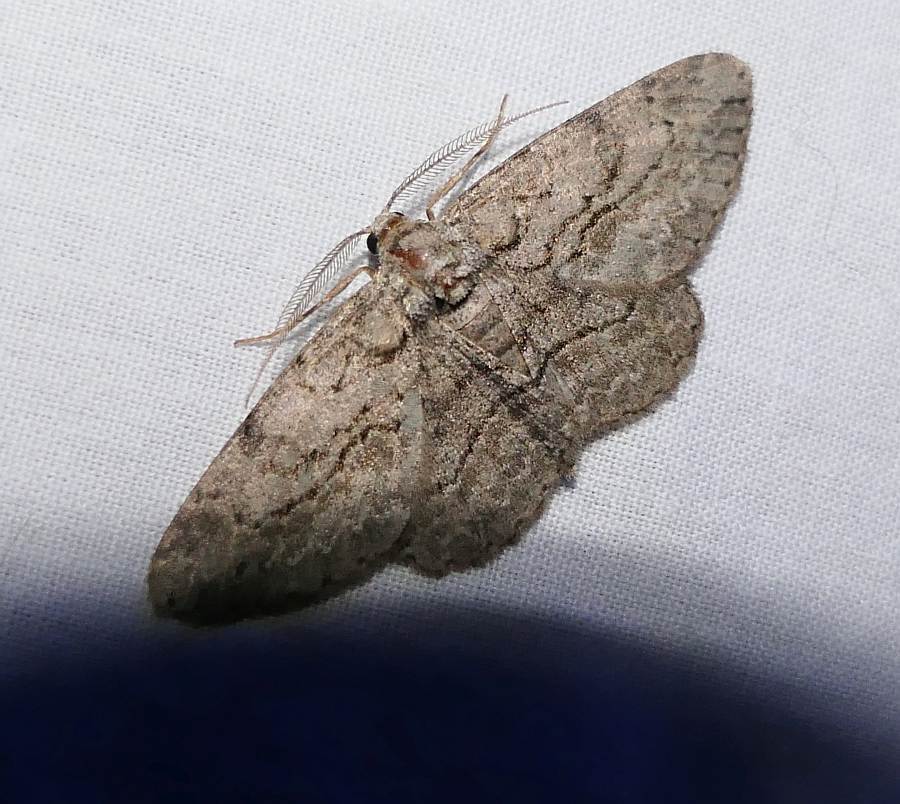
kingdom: Animalia
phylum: Arthropoda
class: Insecta
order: Lepidoptera
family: Geometridae
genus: Anavitrinella
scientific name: Anavitrinella pampinaria
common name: Common gray
